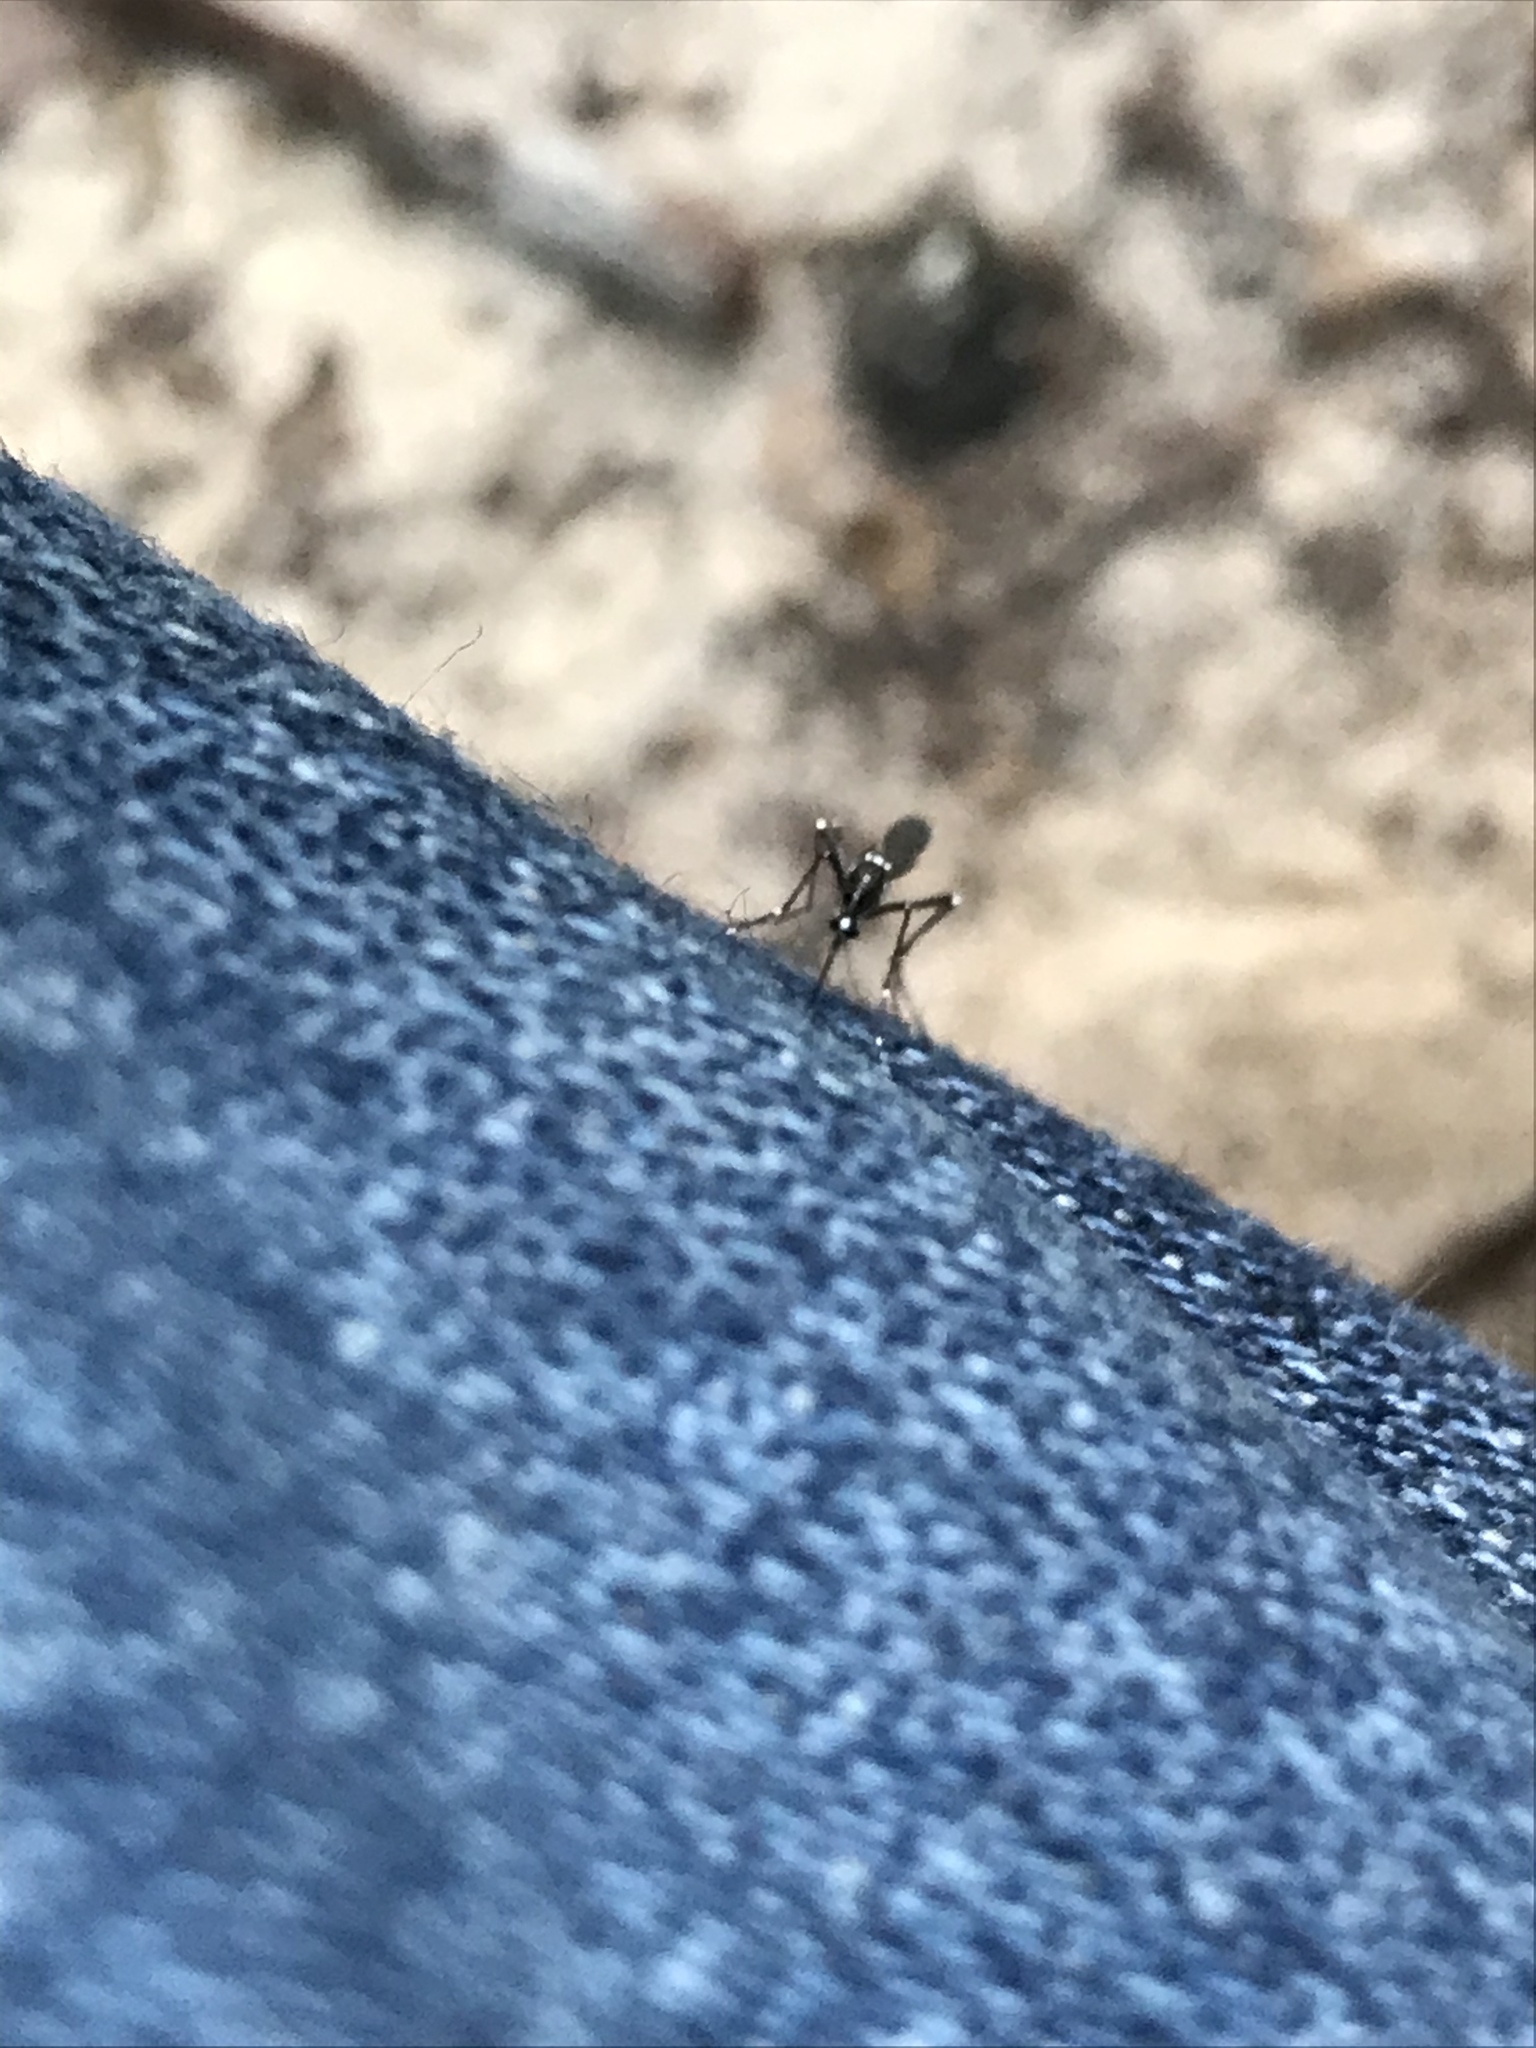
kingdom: Animalia
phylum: Arthropoda
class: Insecta
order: Diptera
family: Culicidae
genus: Aedes
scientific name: Aedes albopictus
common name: Tiger mosquito
